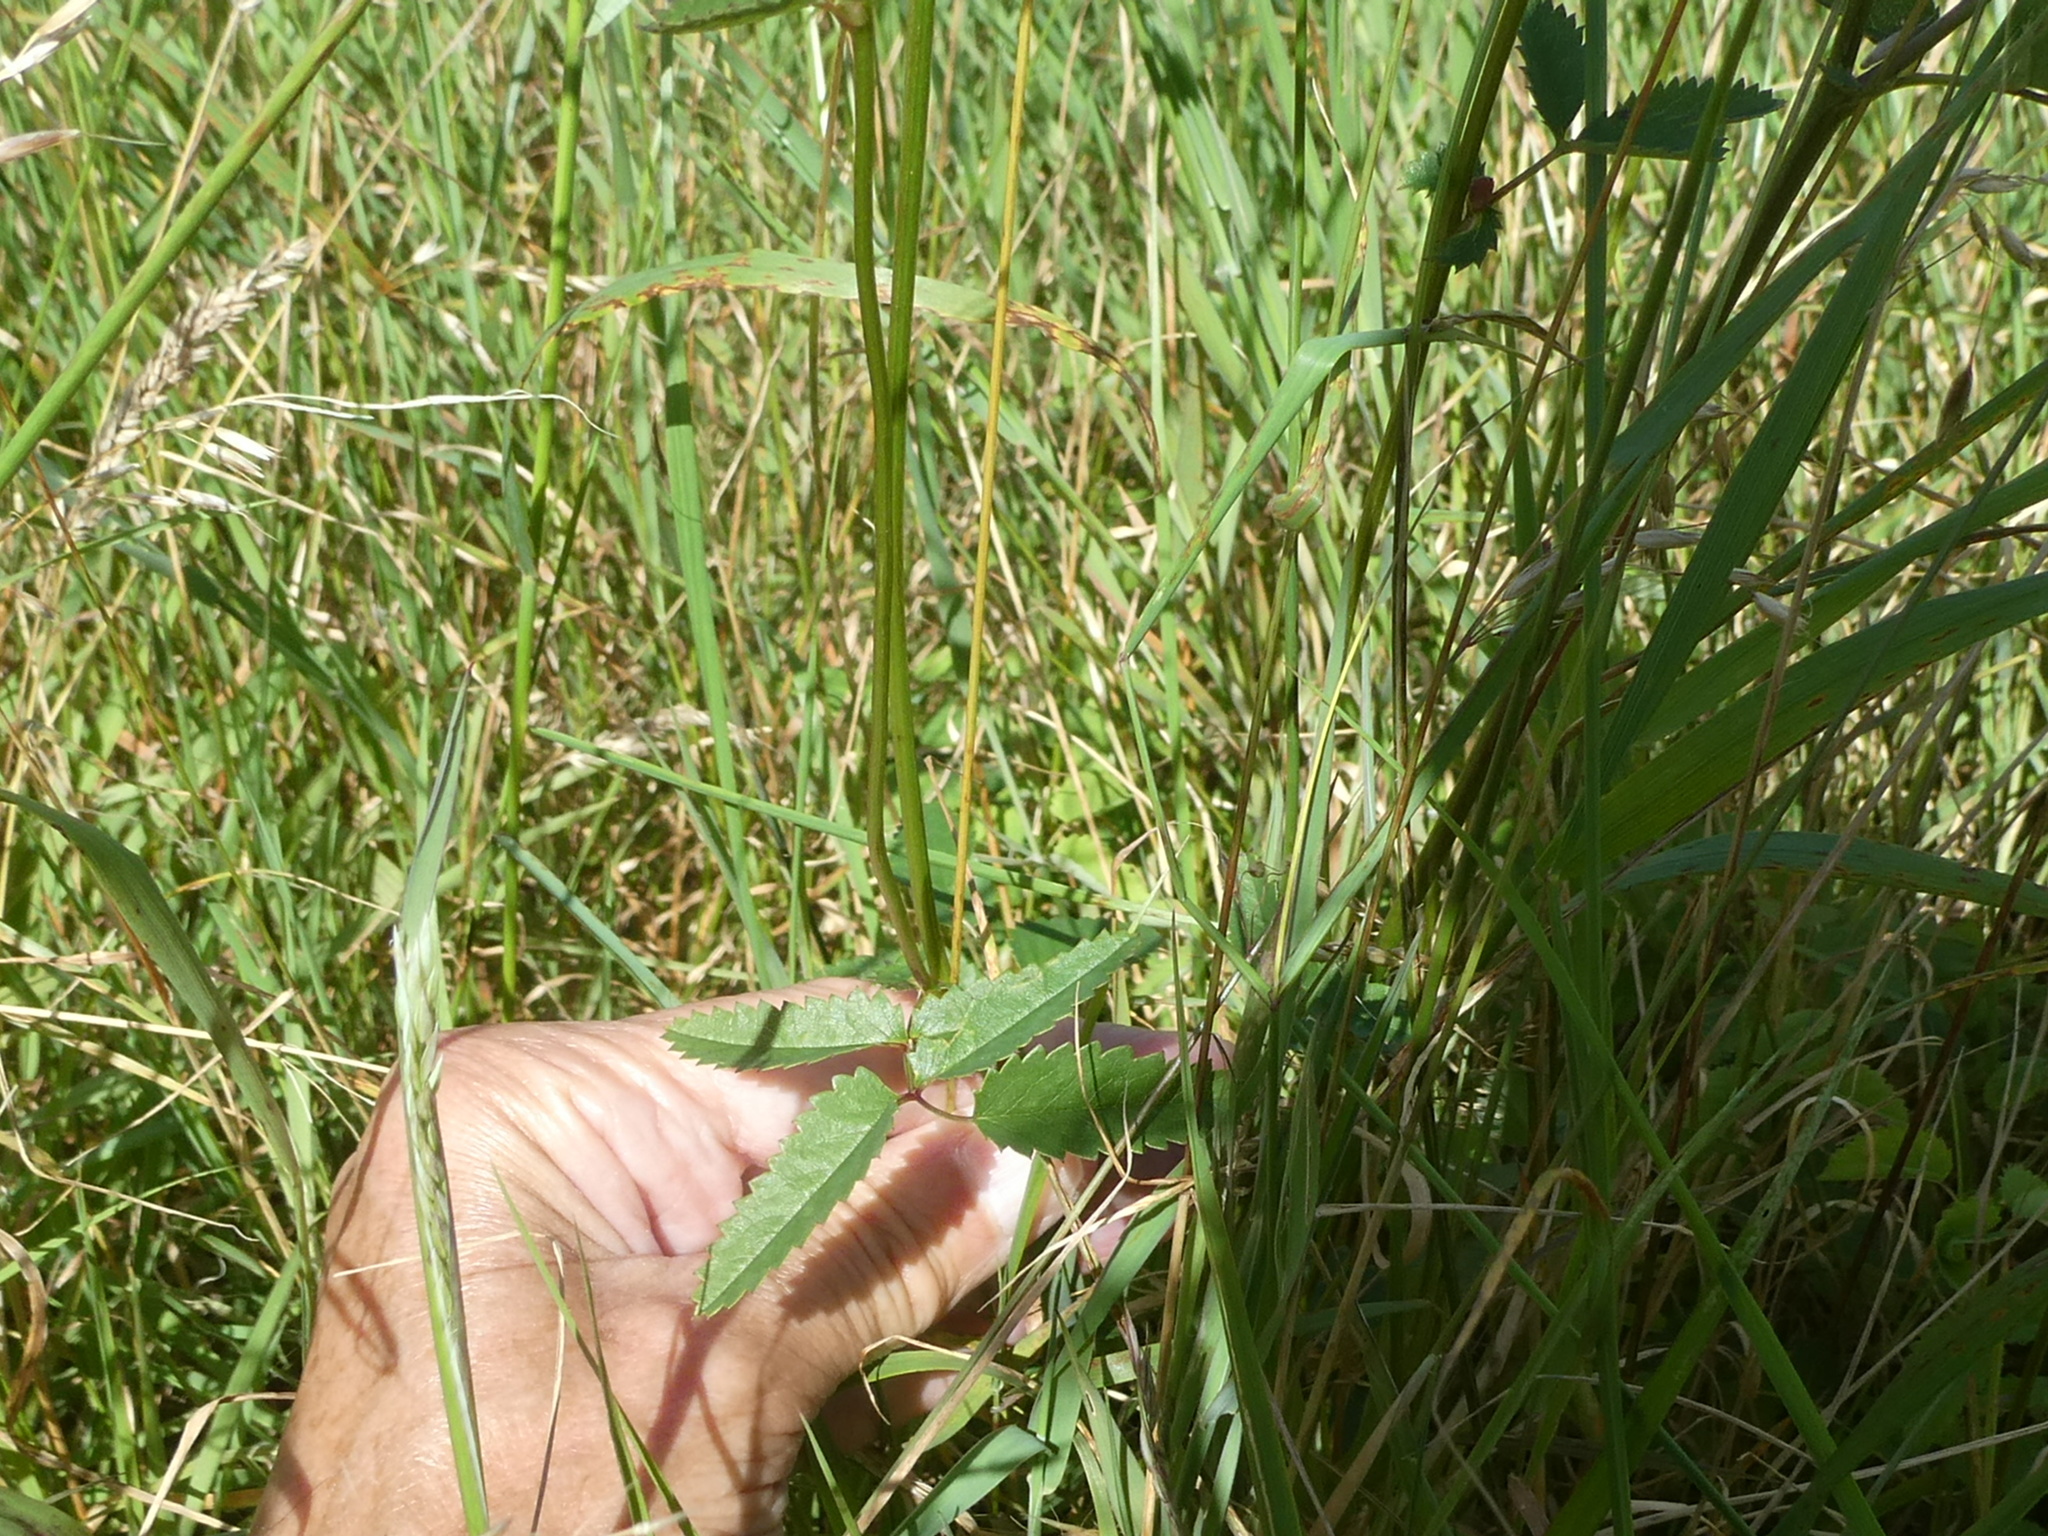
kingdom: Plantae
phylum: Tracheophyta
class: Magnoliopsida
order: Rosales
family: Rosaceae
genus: Sanguisorba
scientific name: Sanguisorba officinalis
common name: Great burnet
